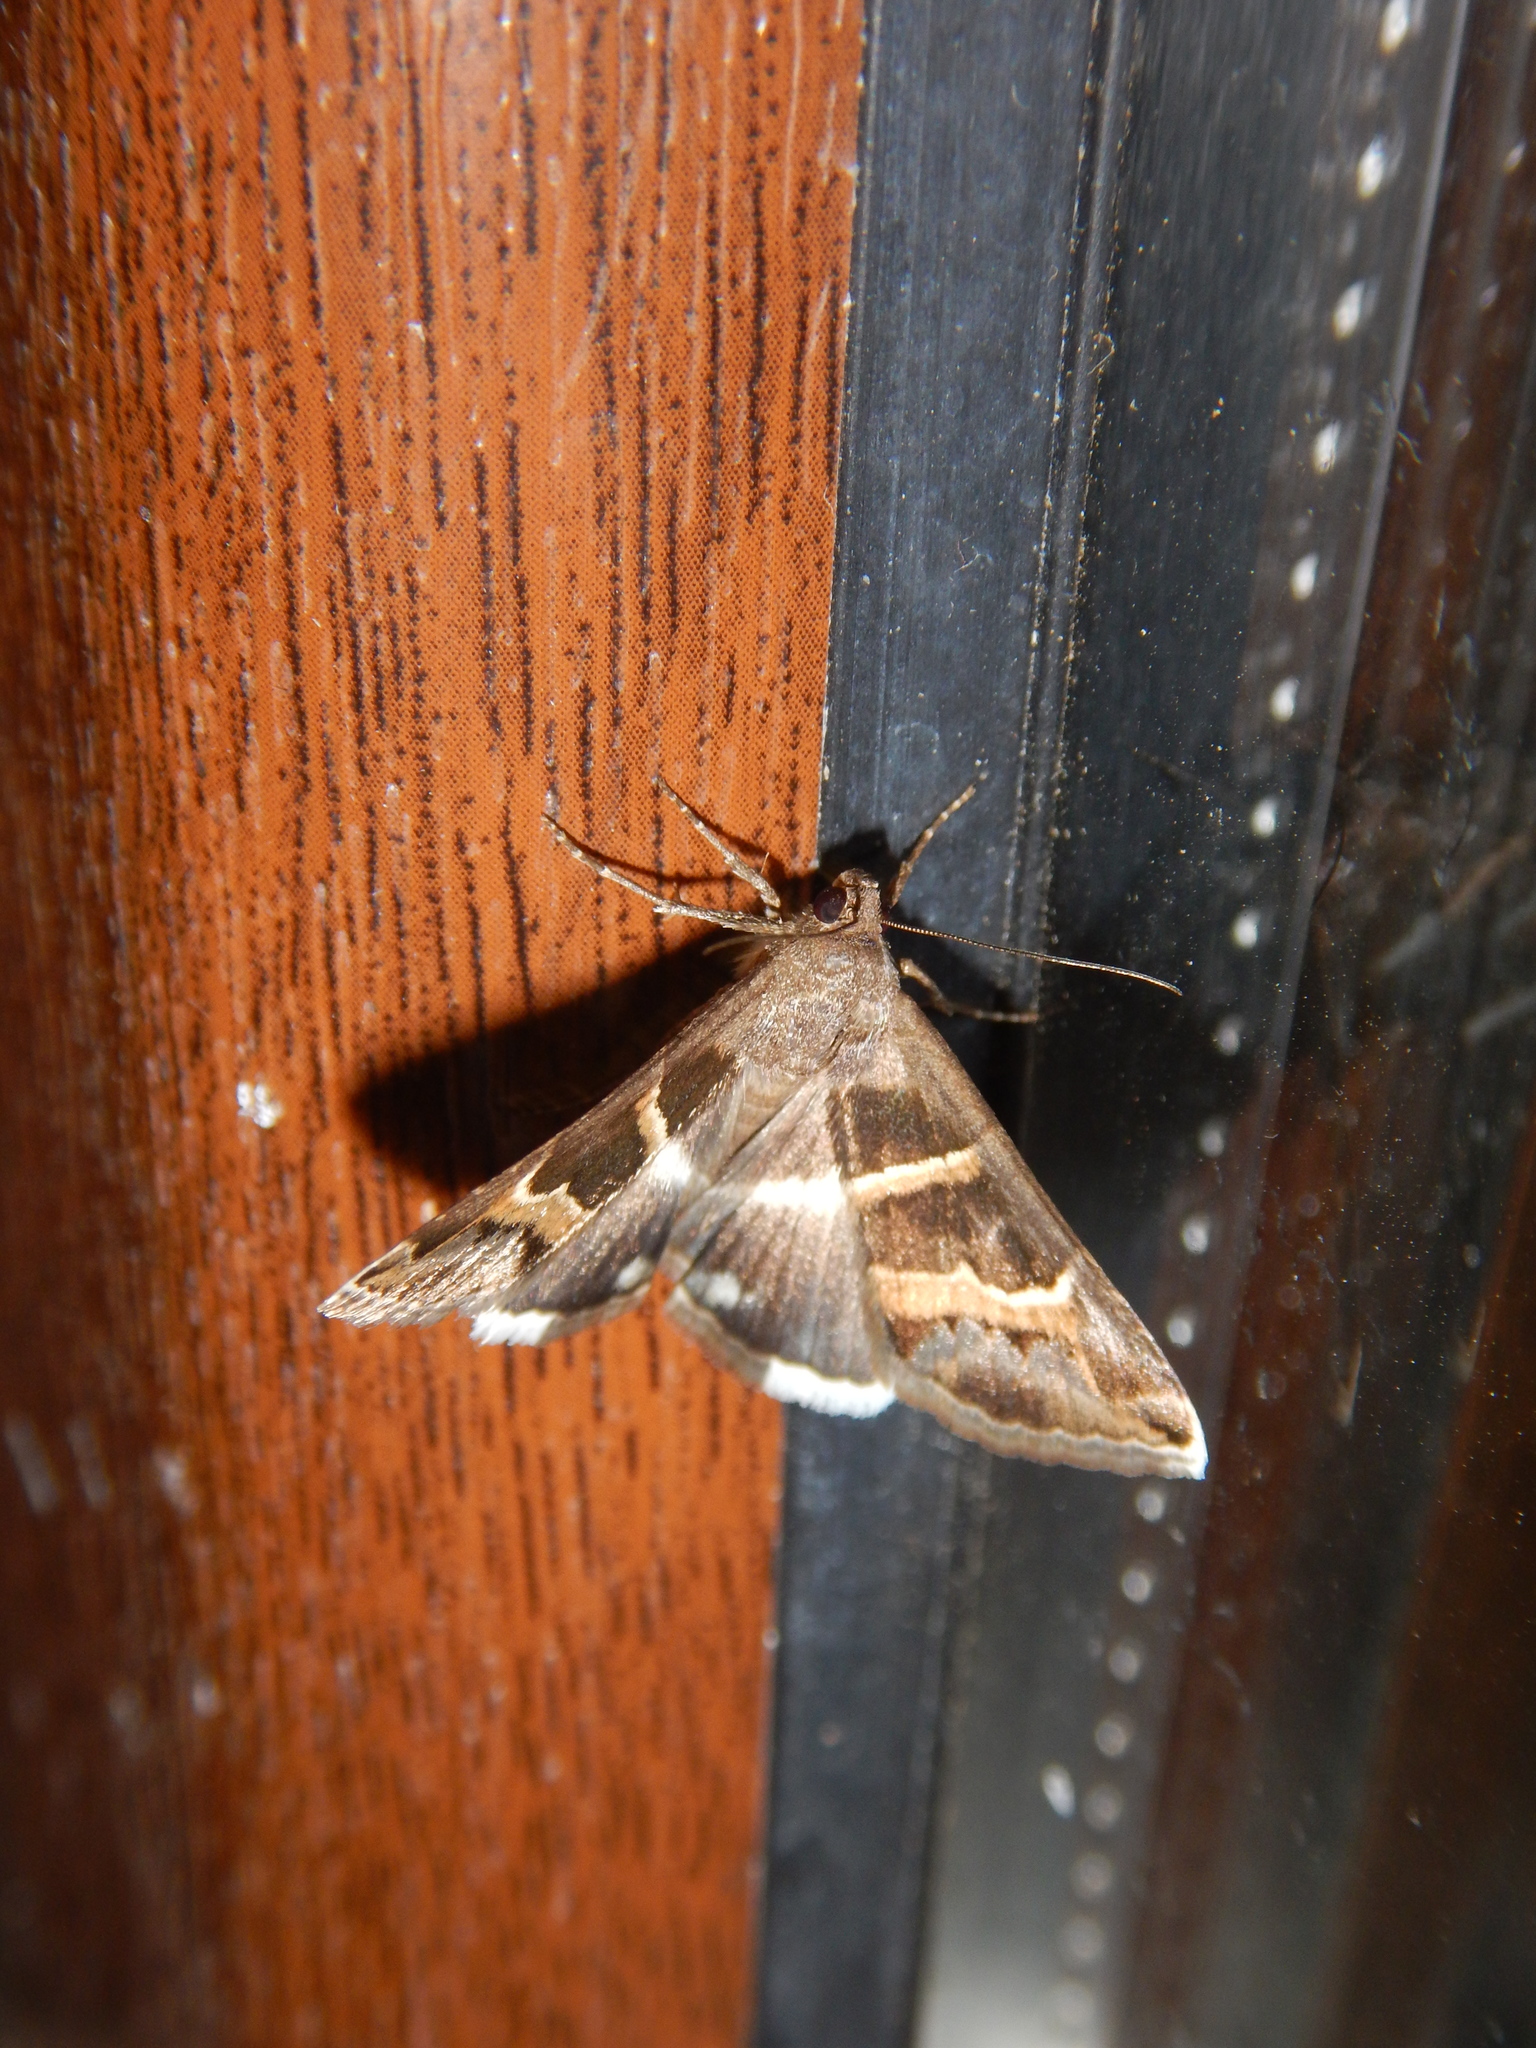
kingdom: Animalia
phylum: Arthropoda
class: Insecta
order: Lepidoptera
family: Erebidae
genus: Grammodes
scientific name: Grammodes stolida
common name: Geometrician
